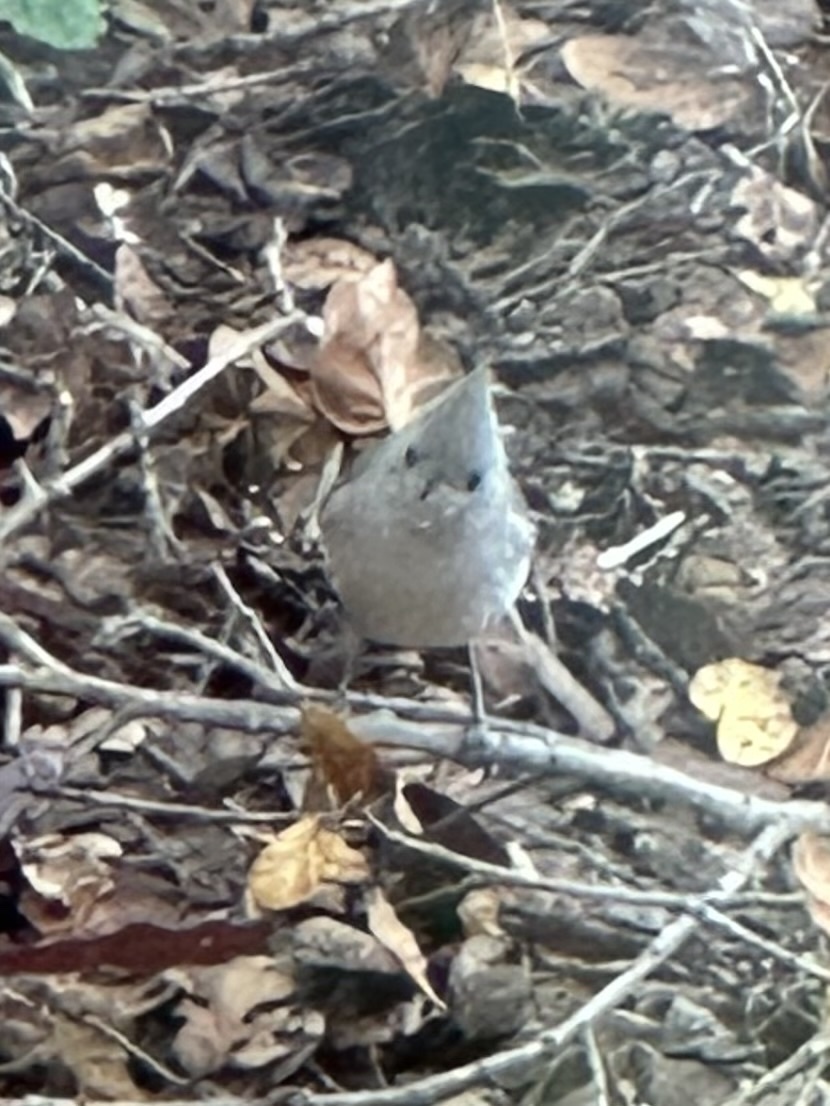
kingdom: Animalia
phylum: Chordata
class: Aves
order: Passeriformes
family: Paridae
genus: Baeolophus
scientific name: Baeolophus inornatus
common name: Oak titmouse
